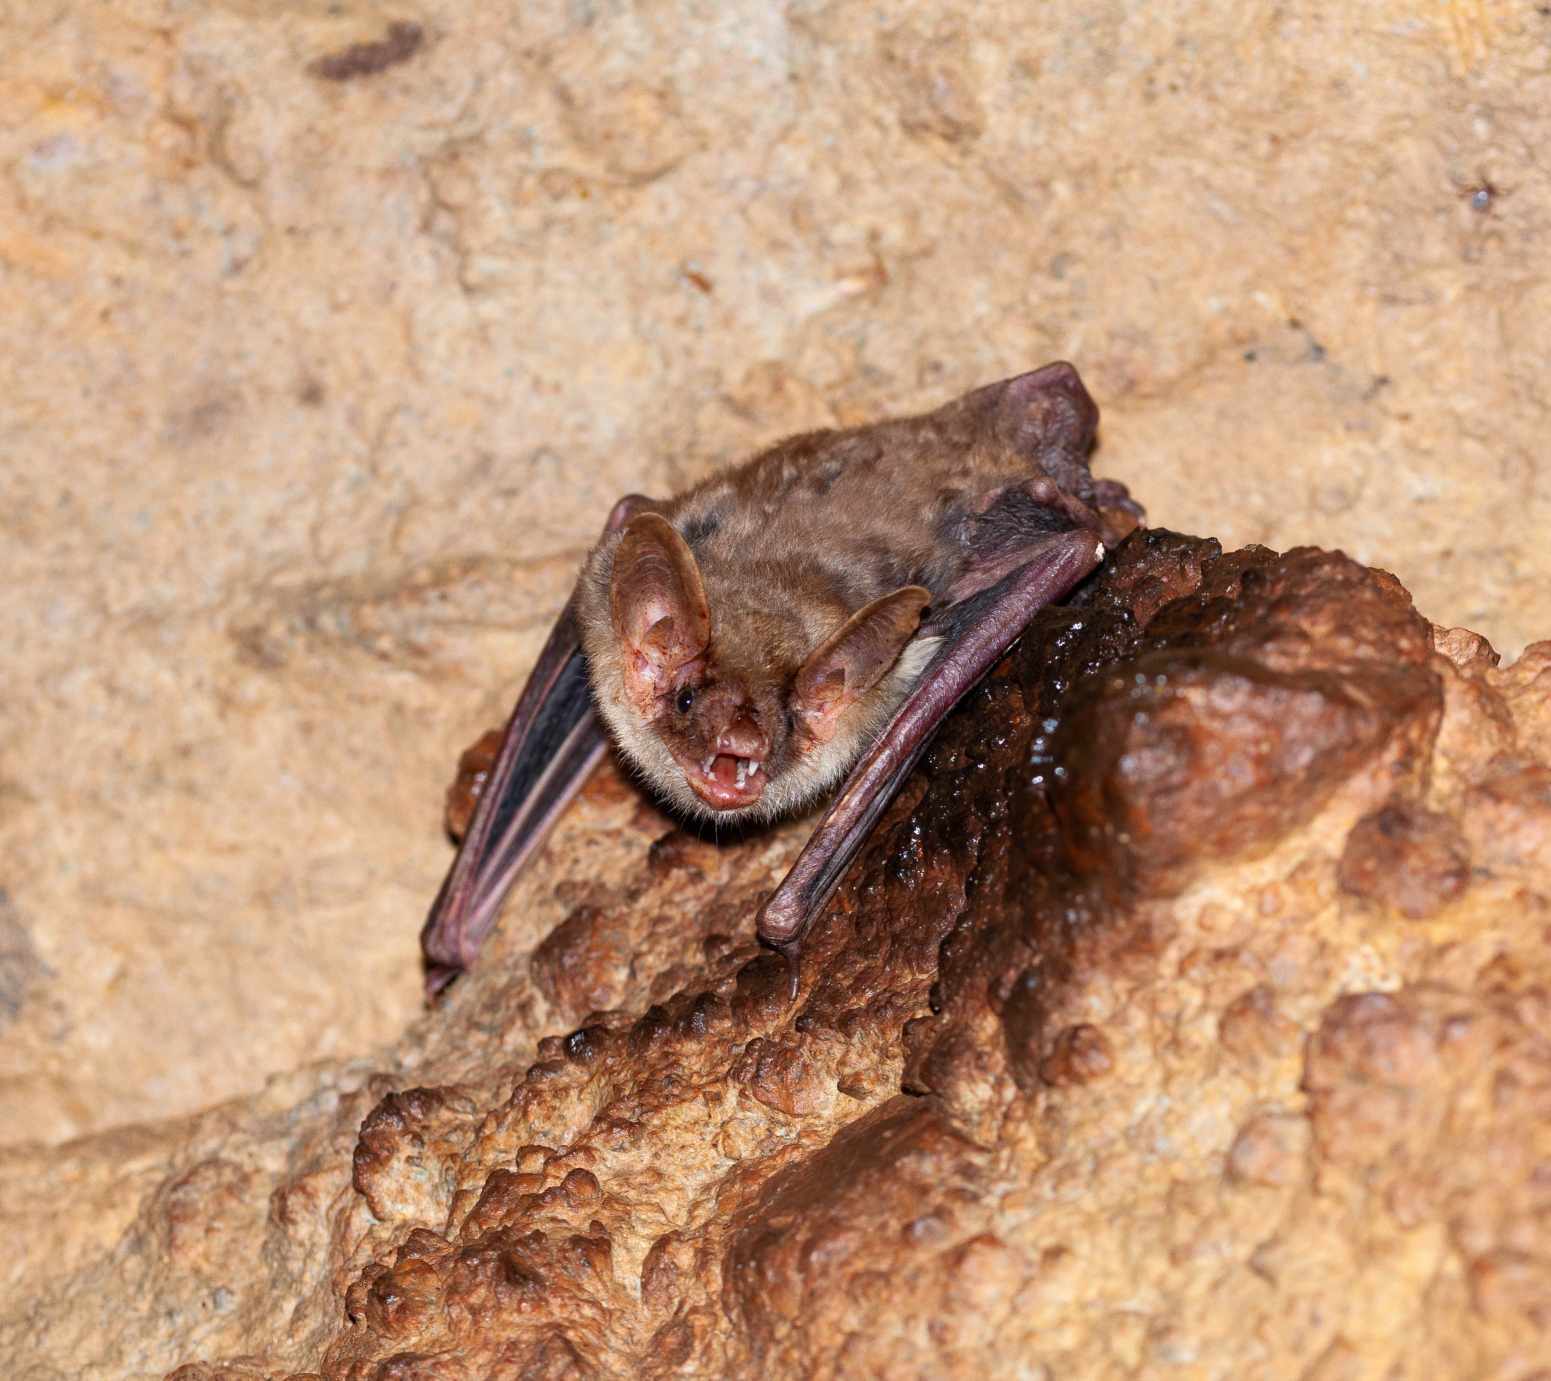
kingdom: Animalia
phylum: Chordata
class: Mammalia
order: Chiroptera
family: Vespertilionidae
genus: Myotis
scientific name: Myotis
